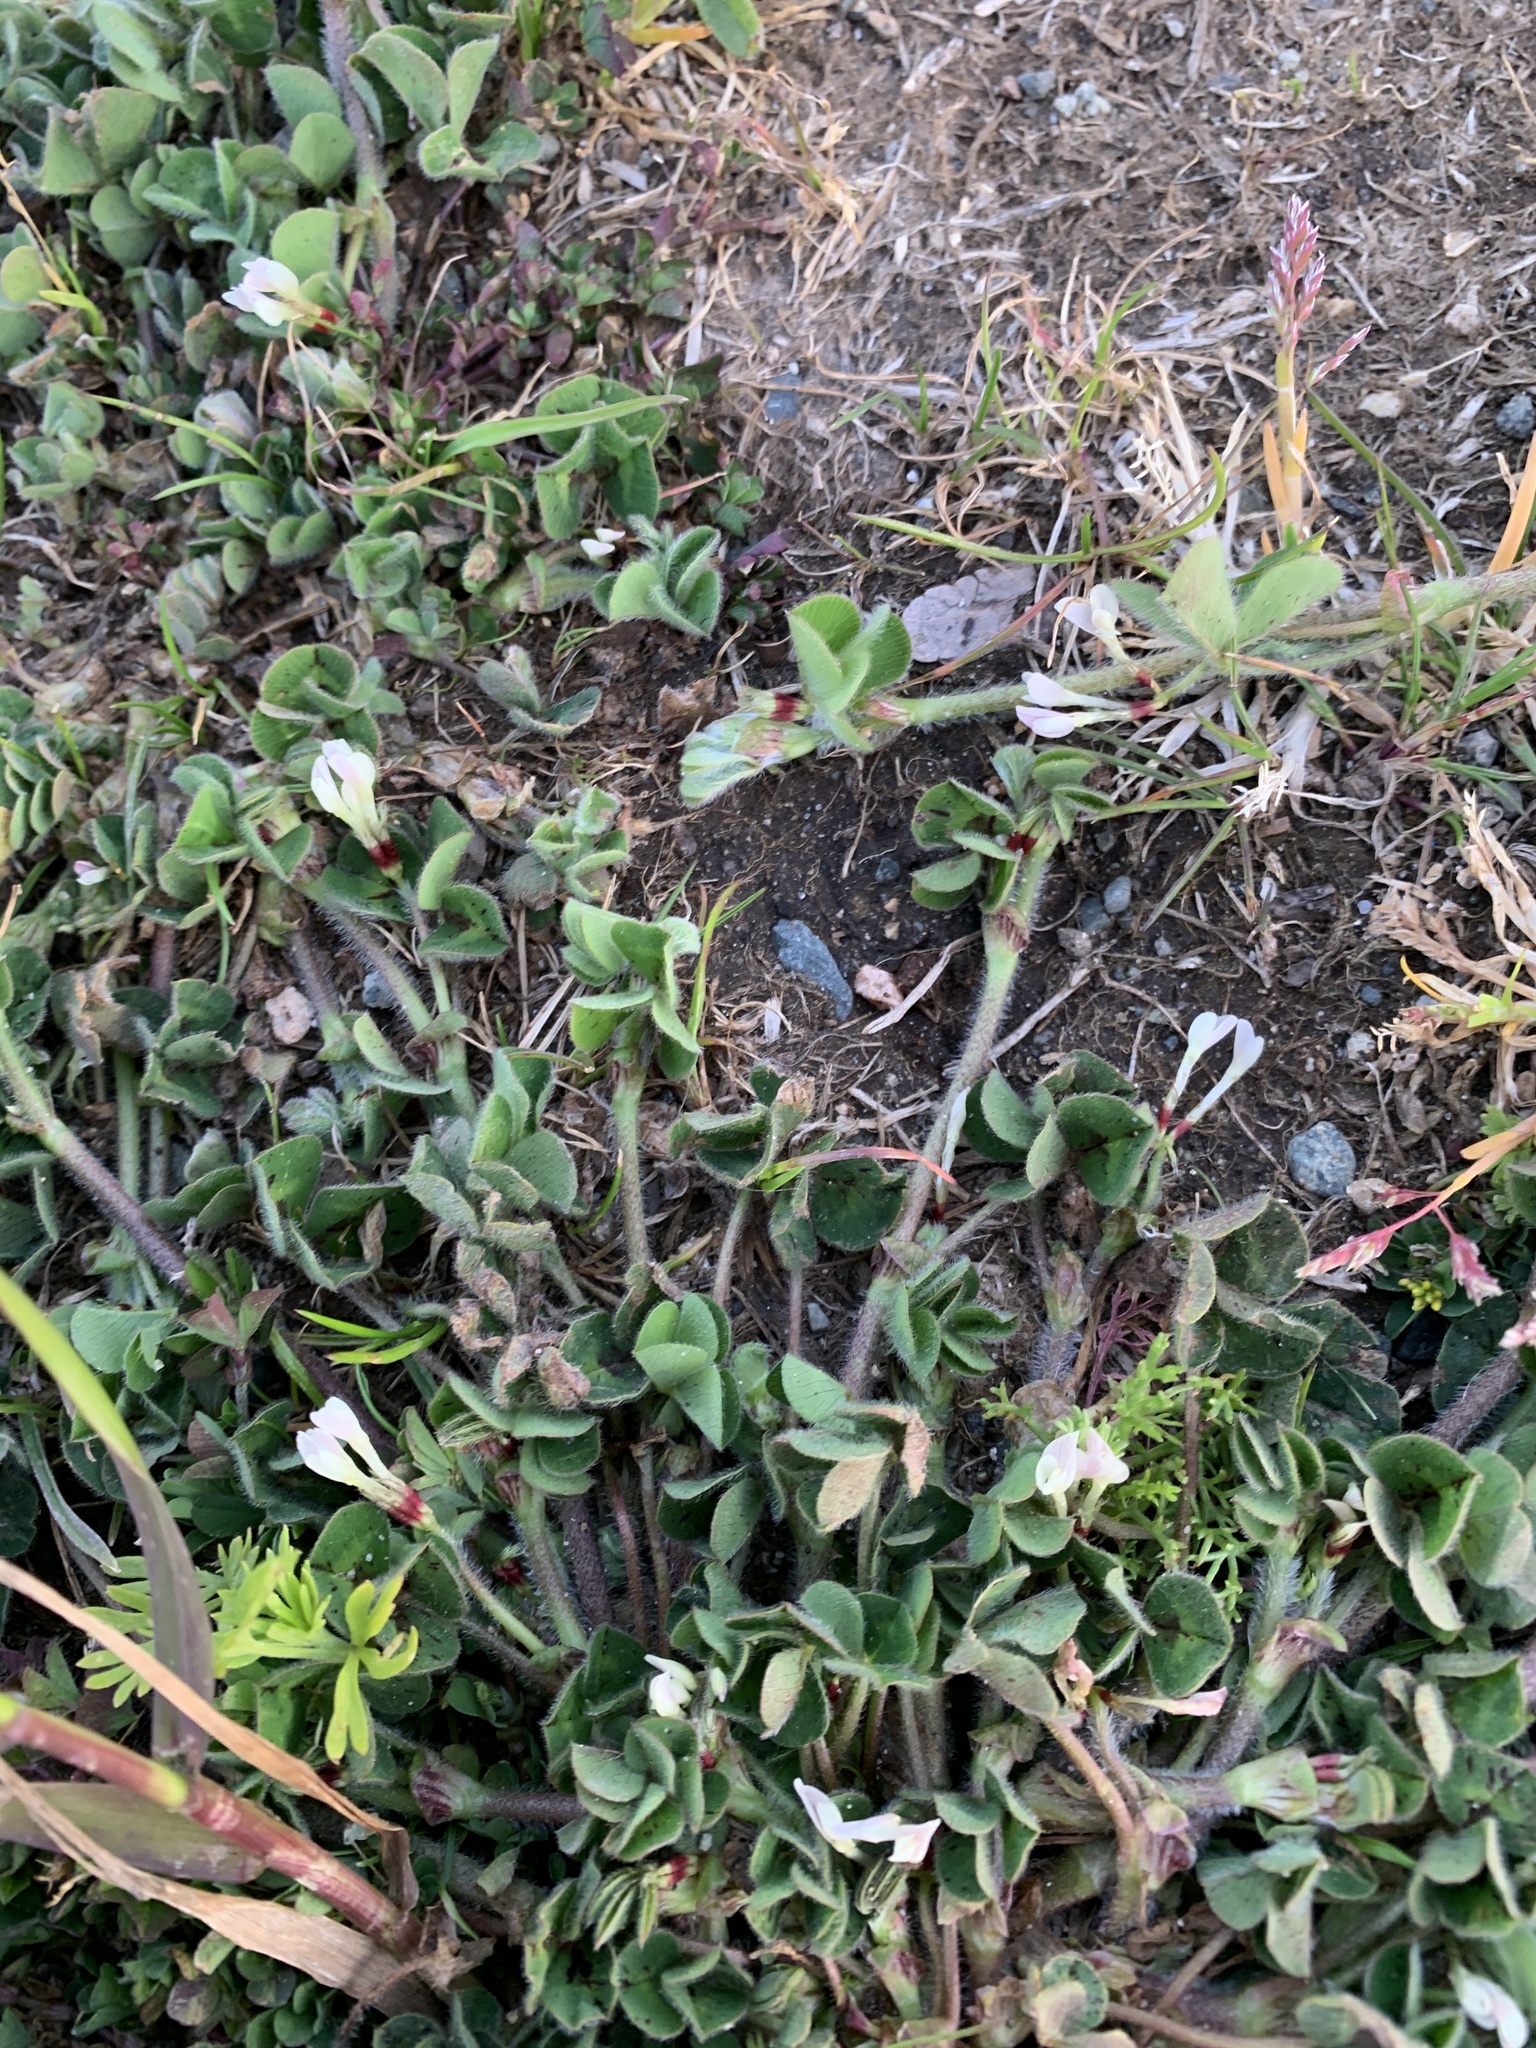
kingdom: Plantae
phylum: Tracheophyta
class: Magnoliopsida
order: Fabales
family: Fabaceae
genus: Trifolium
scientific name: Trifolium subterraneum
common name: Subterranean clover
